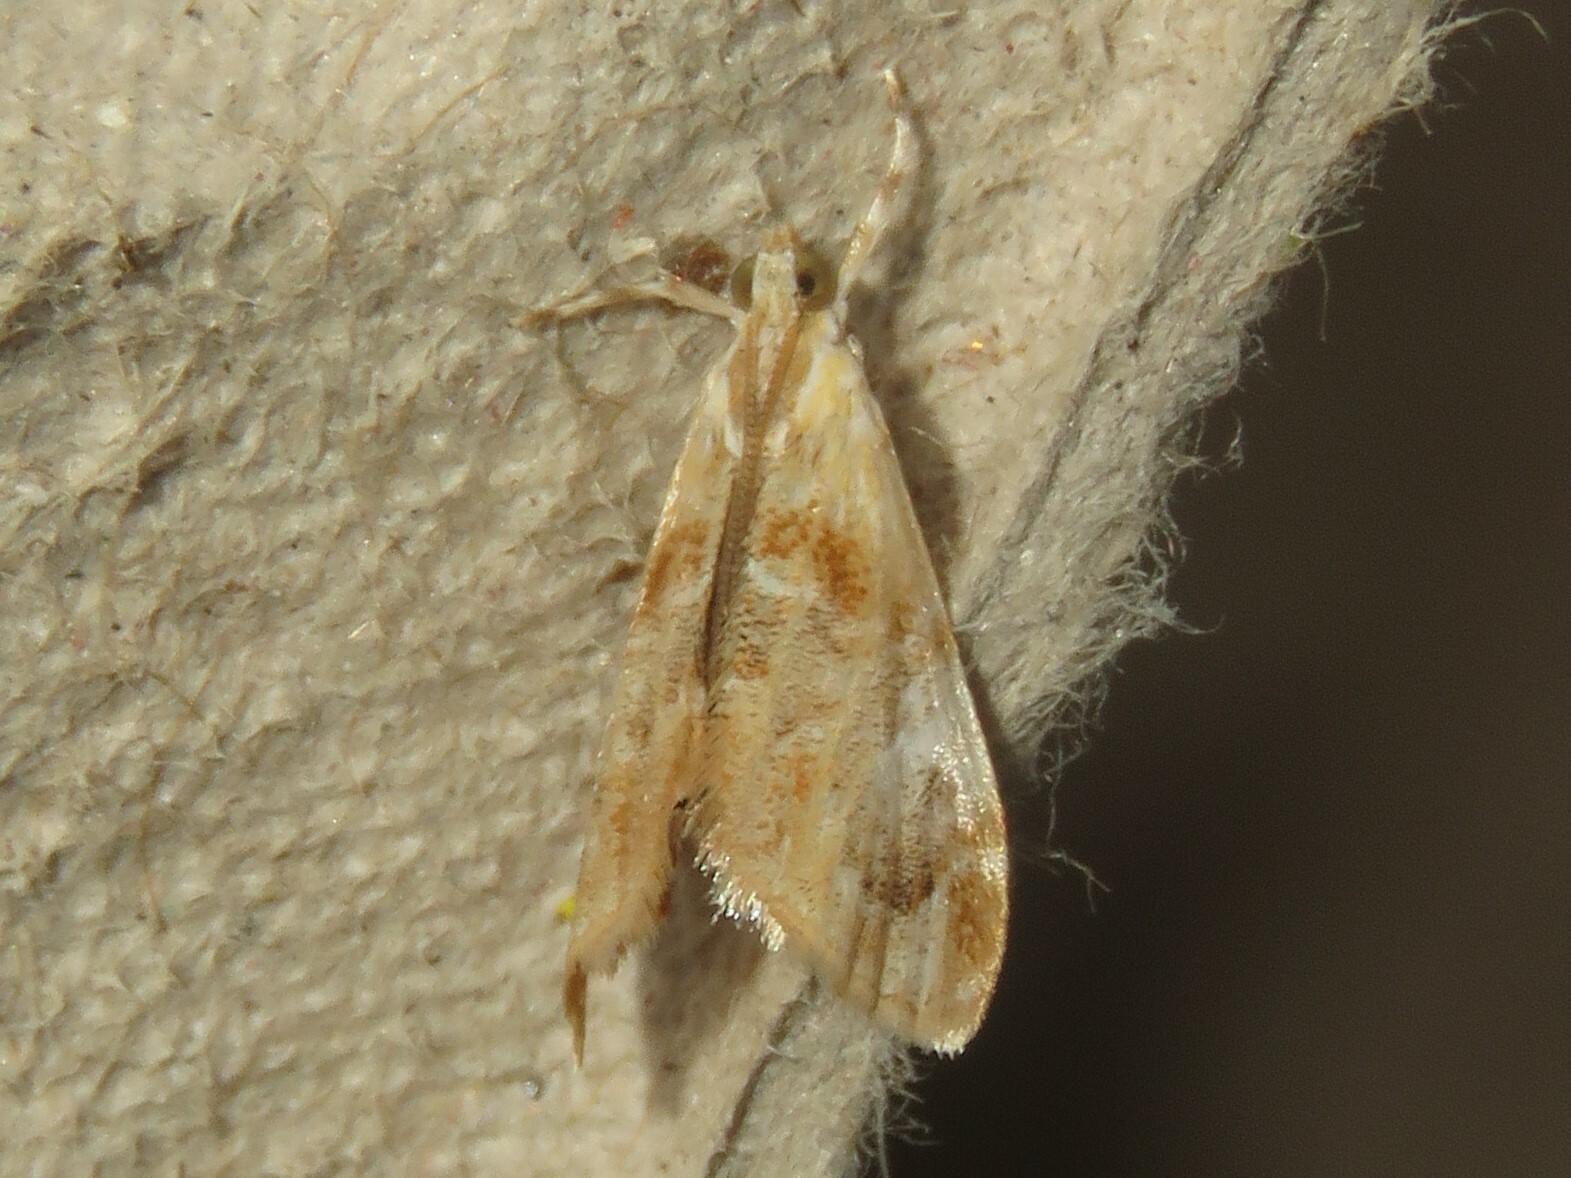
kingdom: Animalia
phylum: Arthropoda
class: Insecta
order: Lepidoptera
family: Crambidae
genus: Dicymolomia
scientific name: Dicymolomia julianalis
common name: Julia's dicymolomia moth
